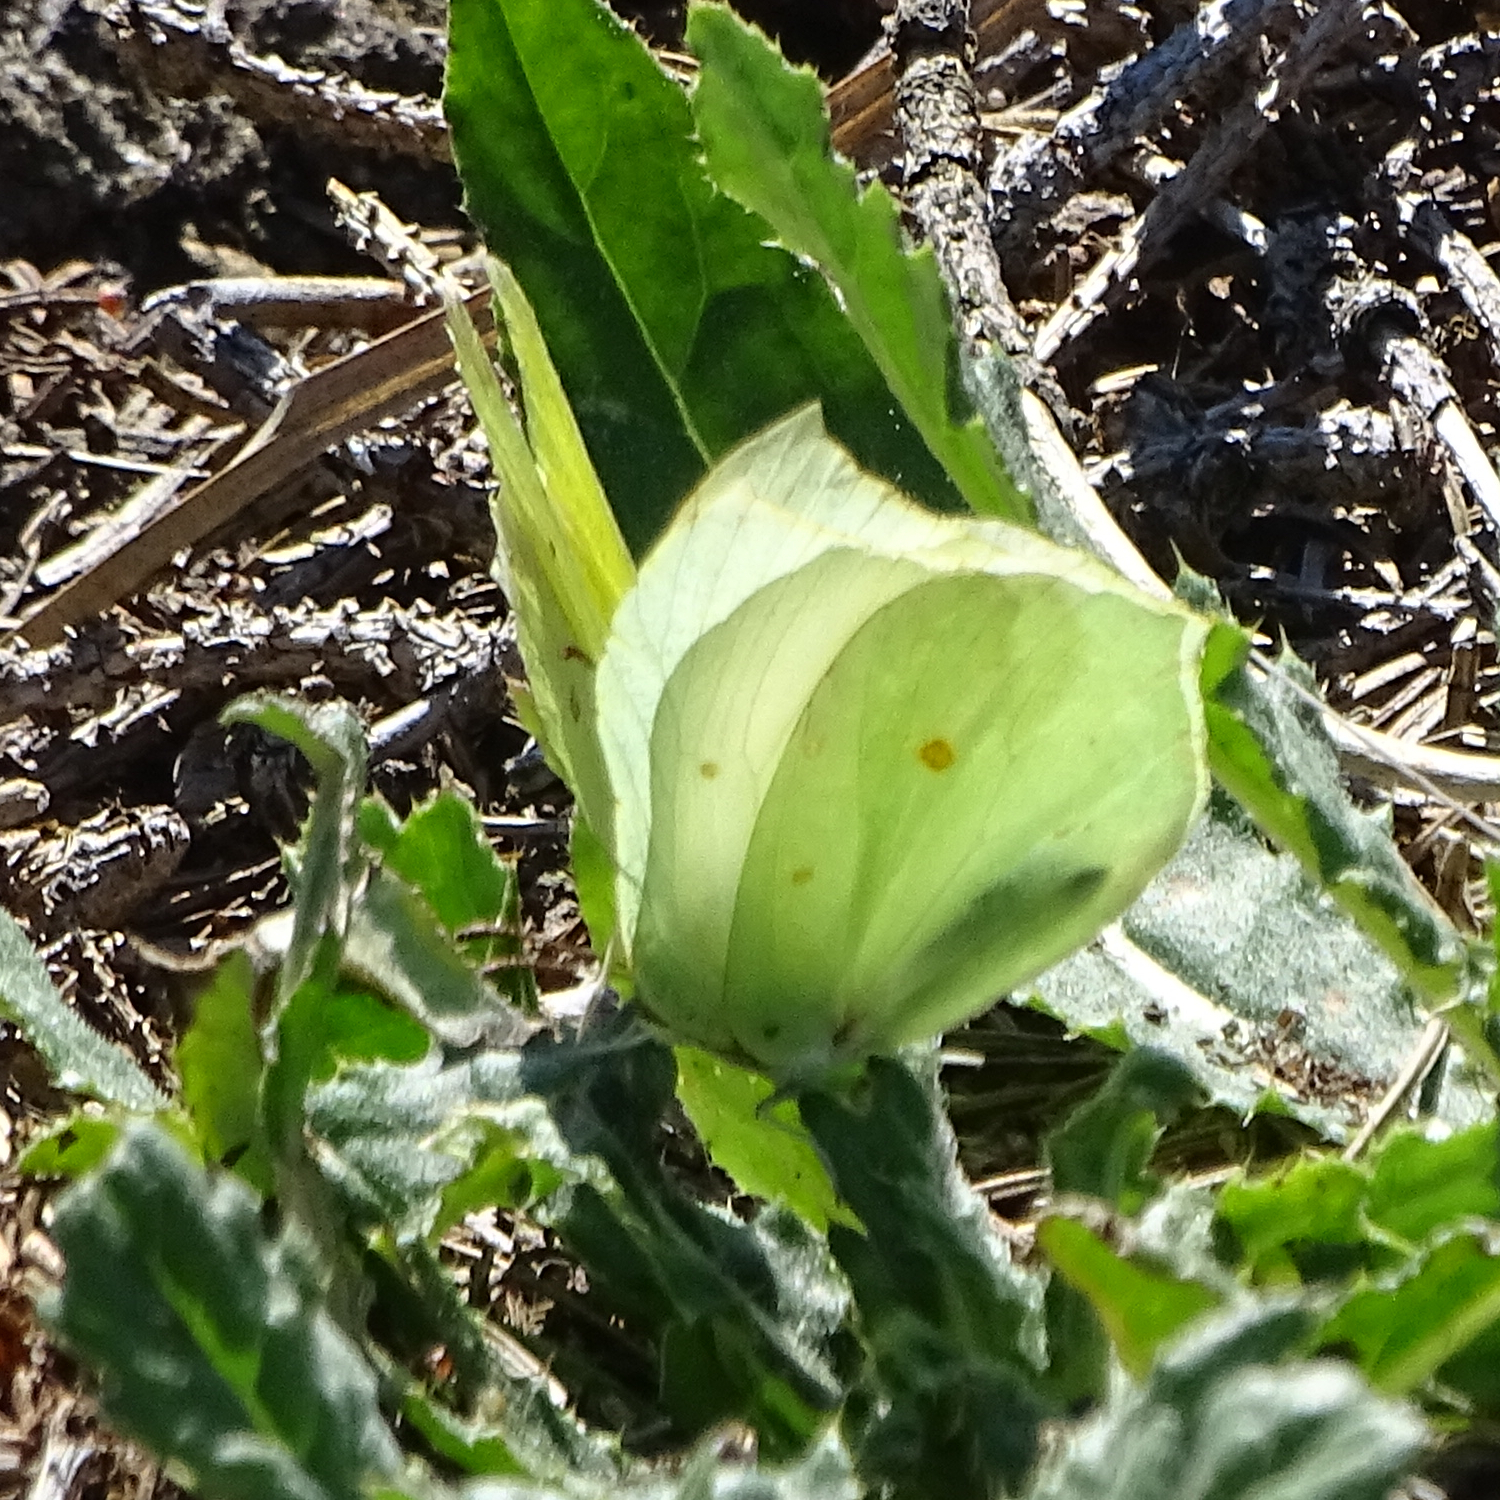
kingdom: Animalia
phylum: Arthropoda
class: Insecta
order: Lepidoptera
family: Pieridae
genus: Gonepteryx
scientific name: Gonepteryx rhamni
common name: Brimstone
